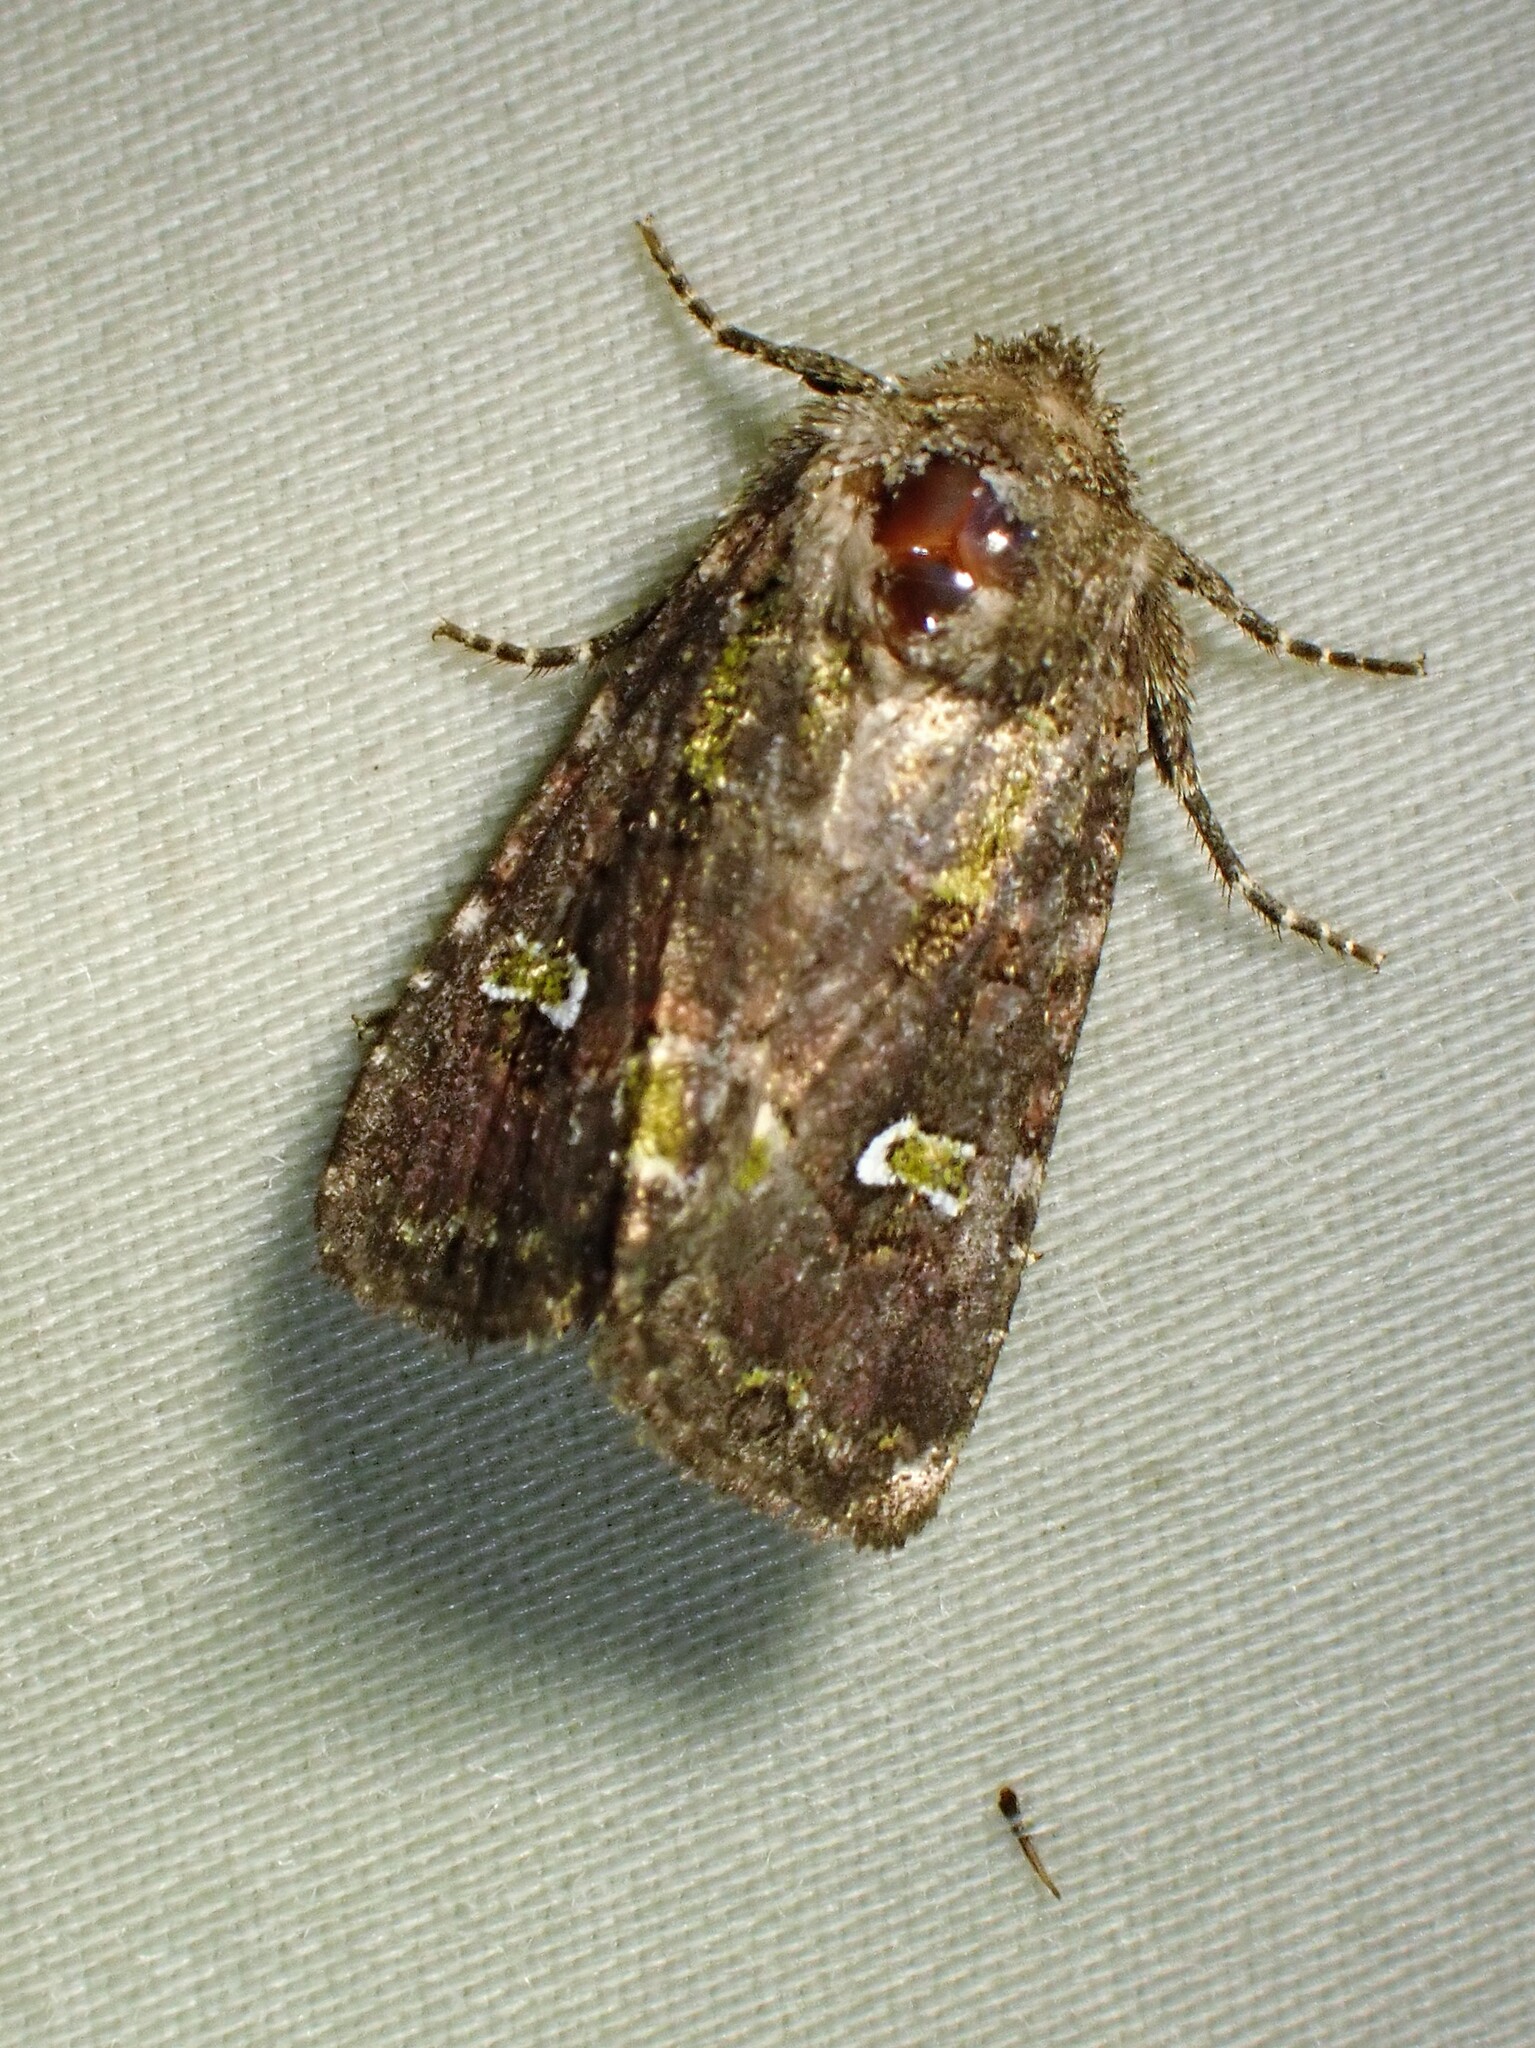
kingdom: Animalia
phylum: Arthropoda
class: Insecta
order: Lepidoptera
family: Noctuidae
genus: Lacinipolia
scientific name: Lacinipolia renigera
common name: Kidney-spotted minor
